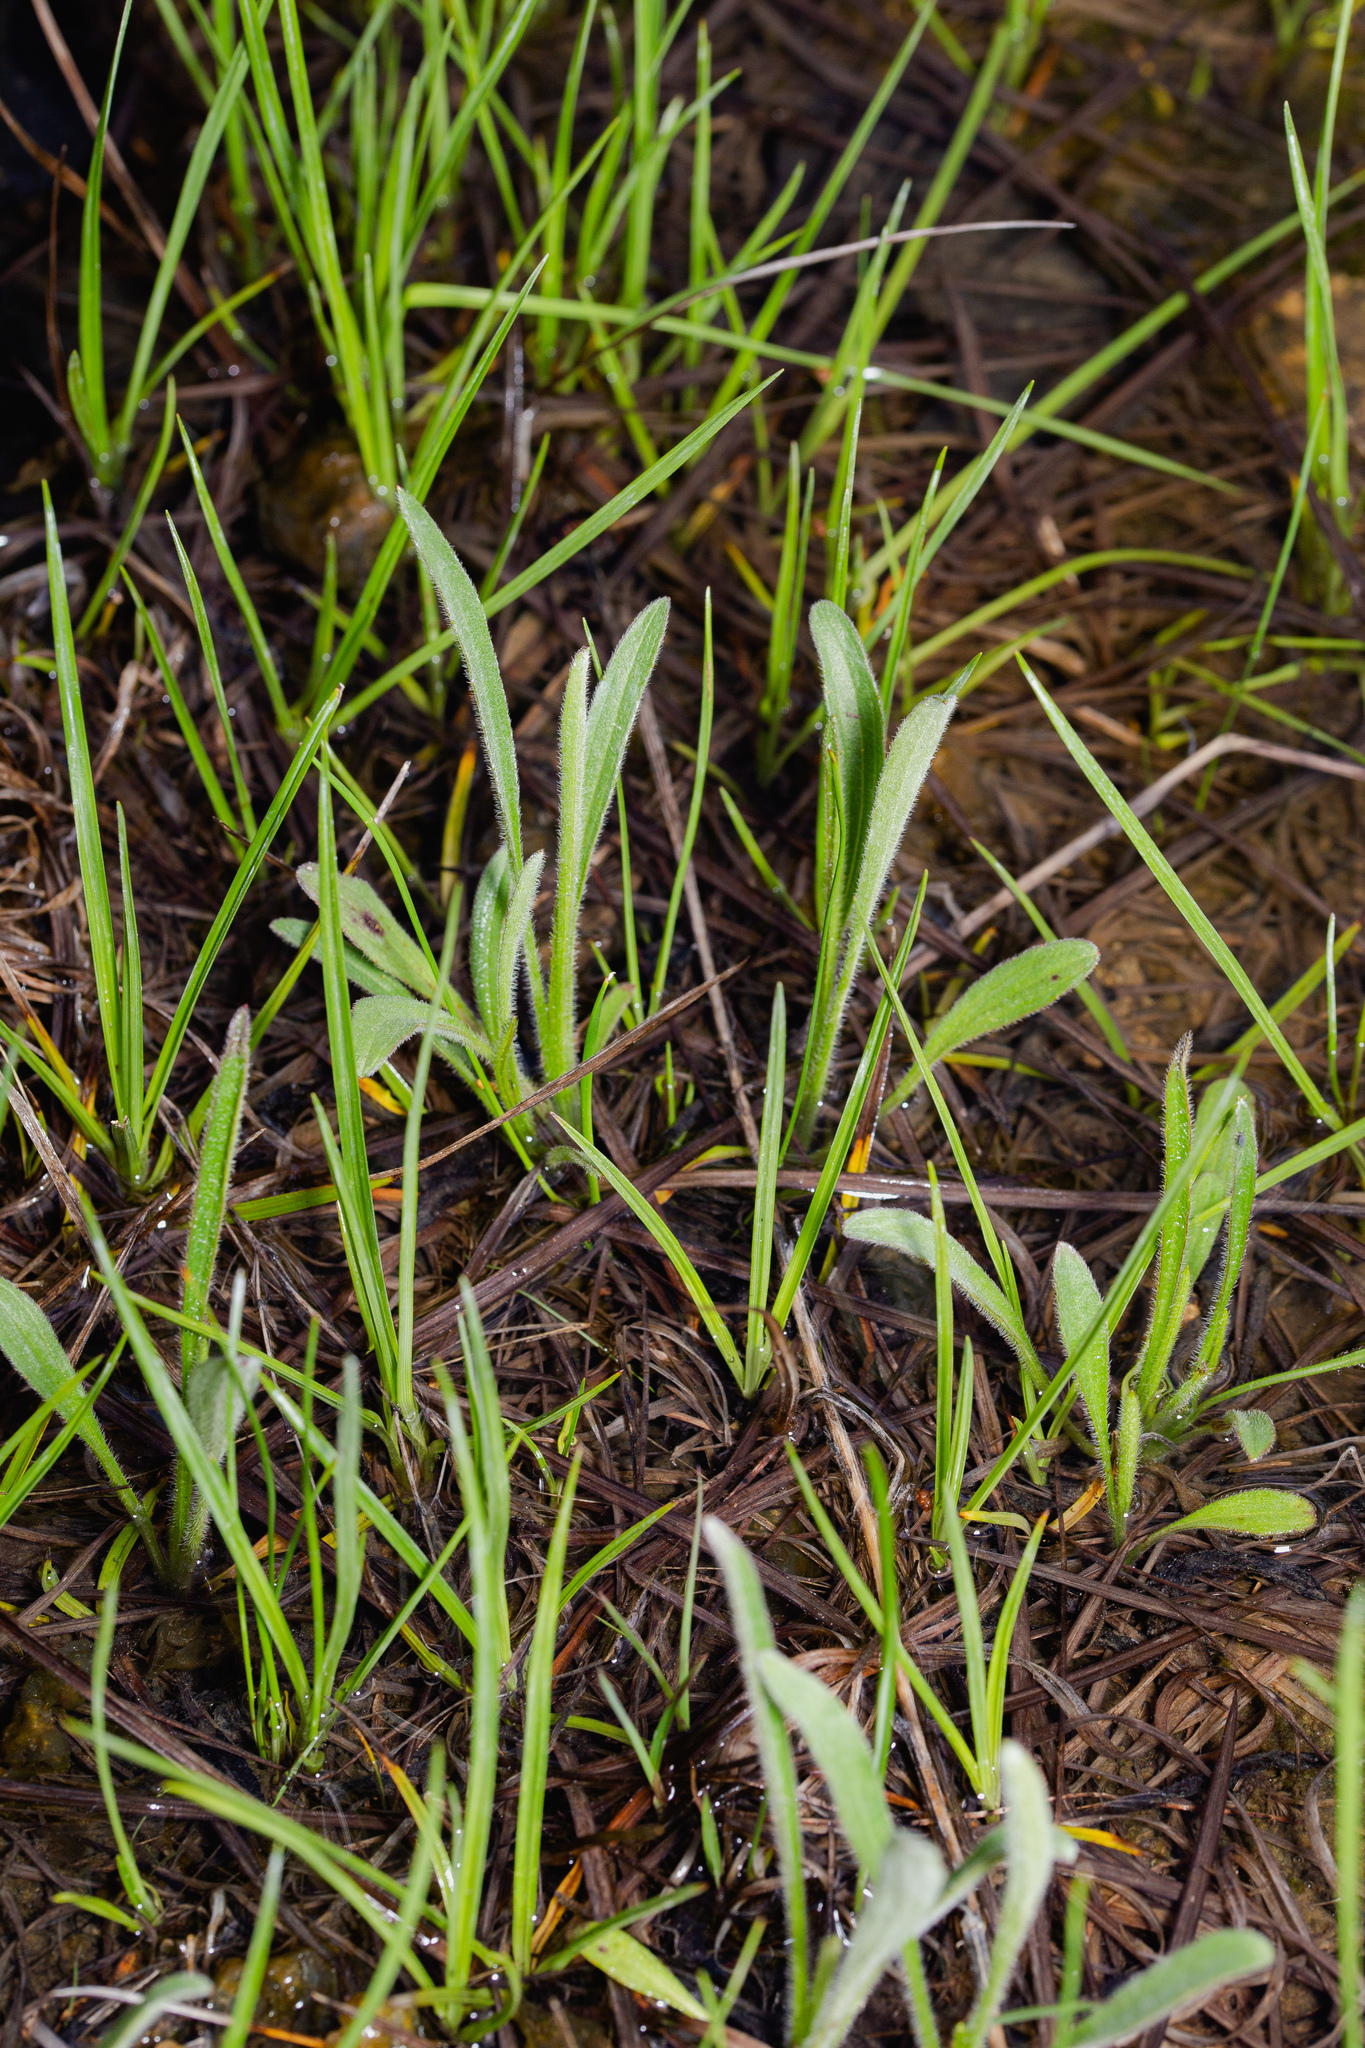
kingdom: Plantae
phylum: Tracheophyta
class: Magnoliopsida
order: Asterales
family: Asteraceae
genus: Rudbeckia
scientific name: Rudbeckia missouriensis
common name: Missouri coneflower
